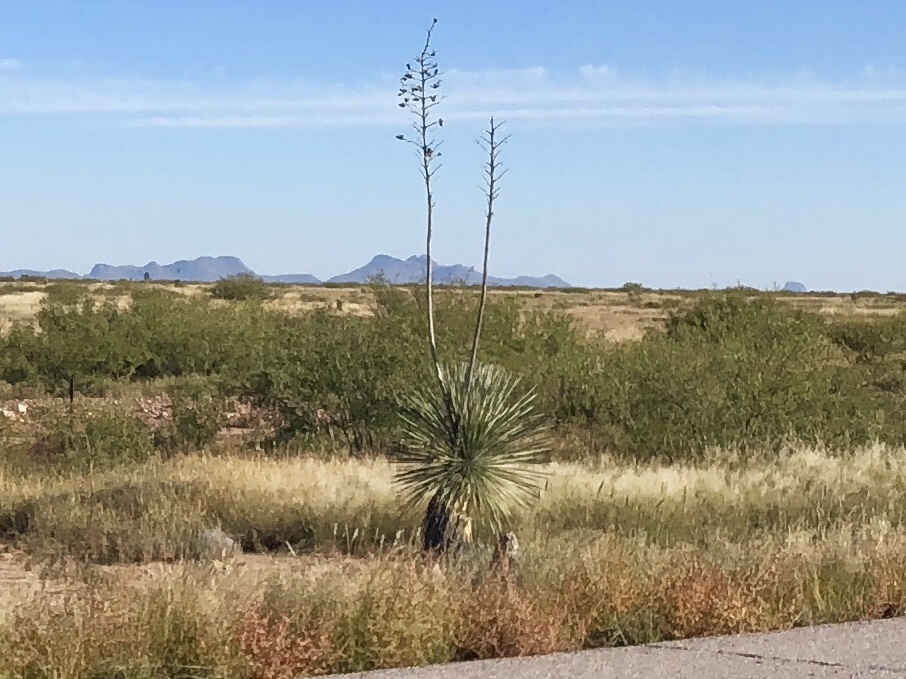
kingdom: Plantae
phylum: Tracheophyta
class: Liliopsida
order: Asparagales
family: Asparagaceae
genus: Yucca
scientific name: Yucca elata
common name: Palmella
